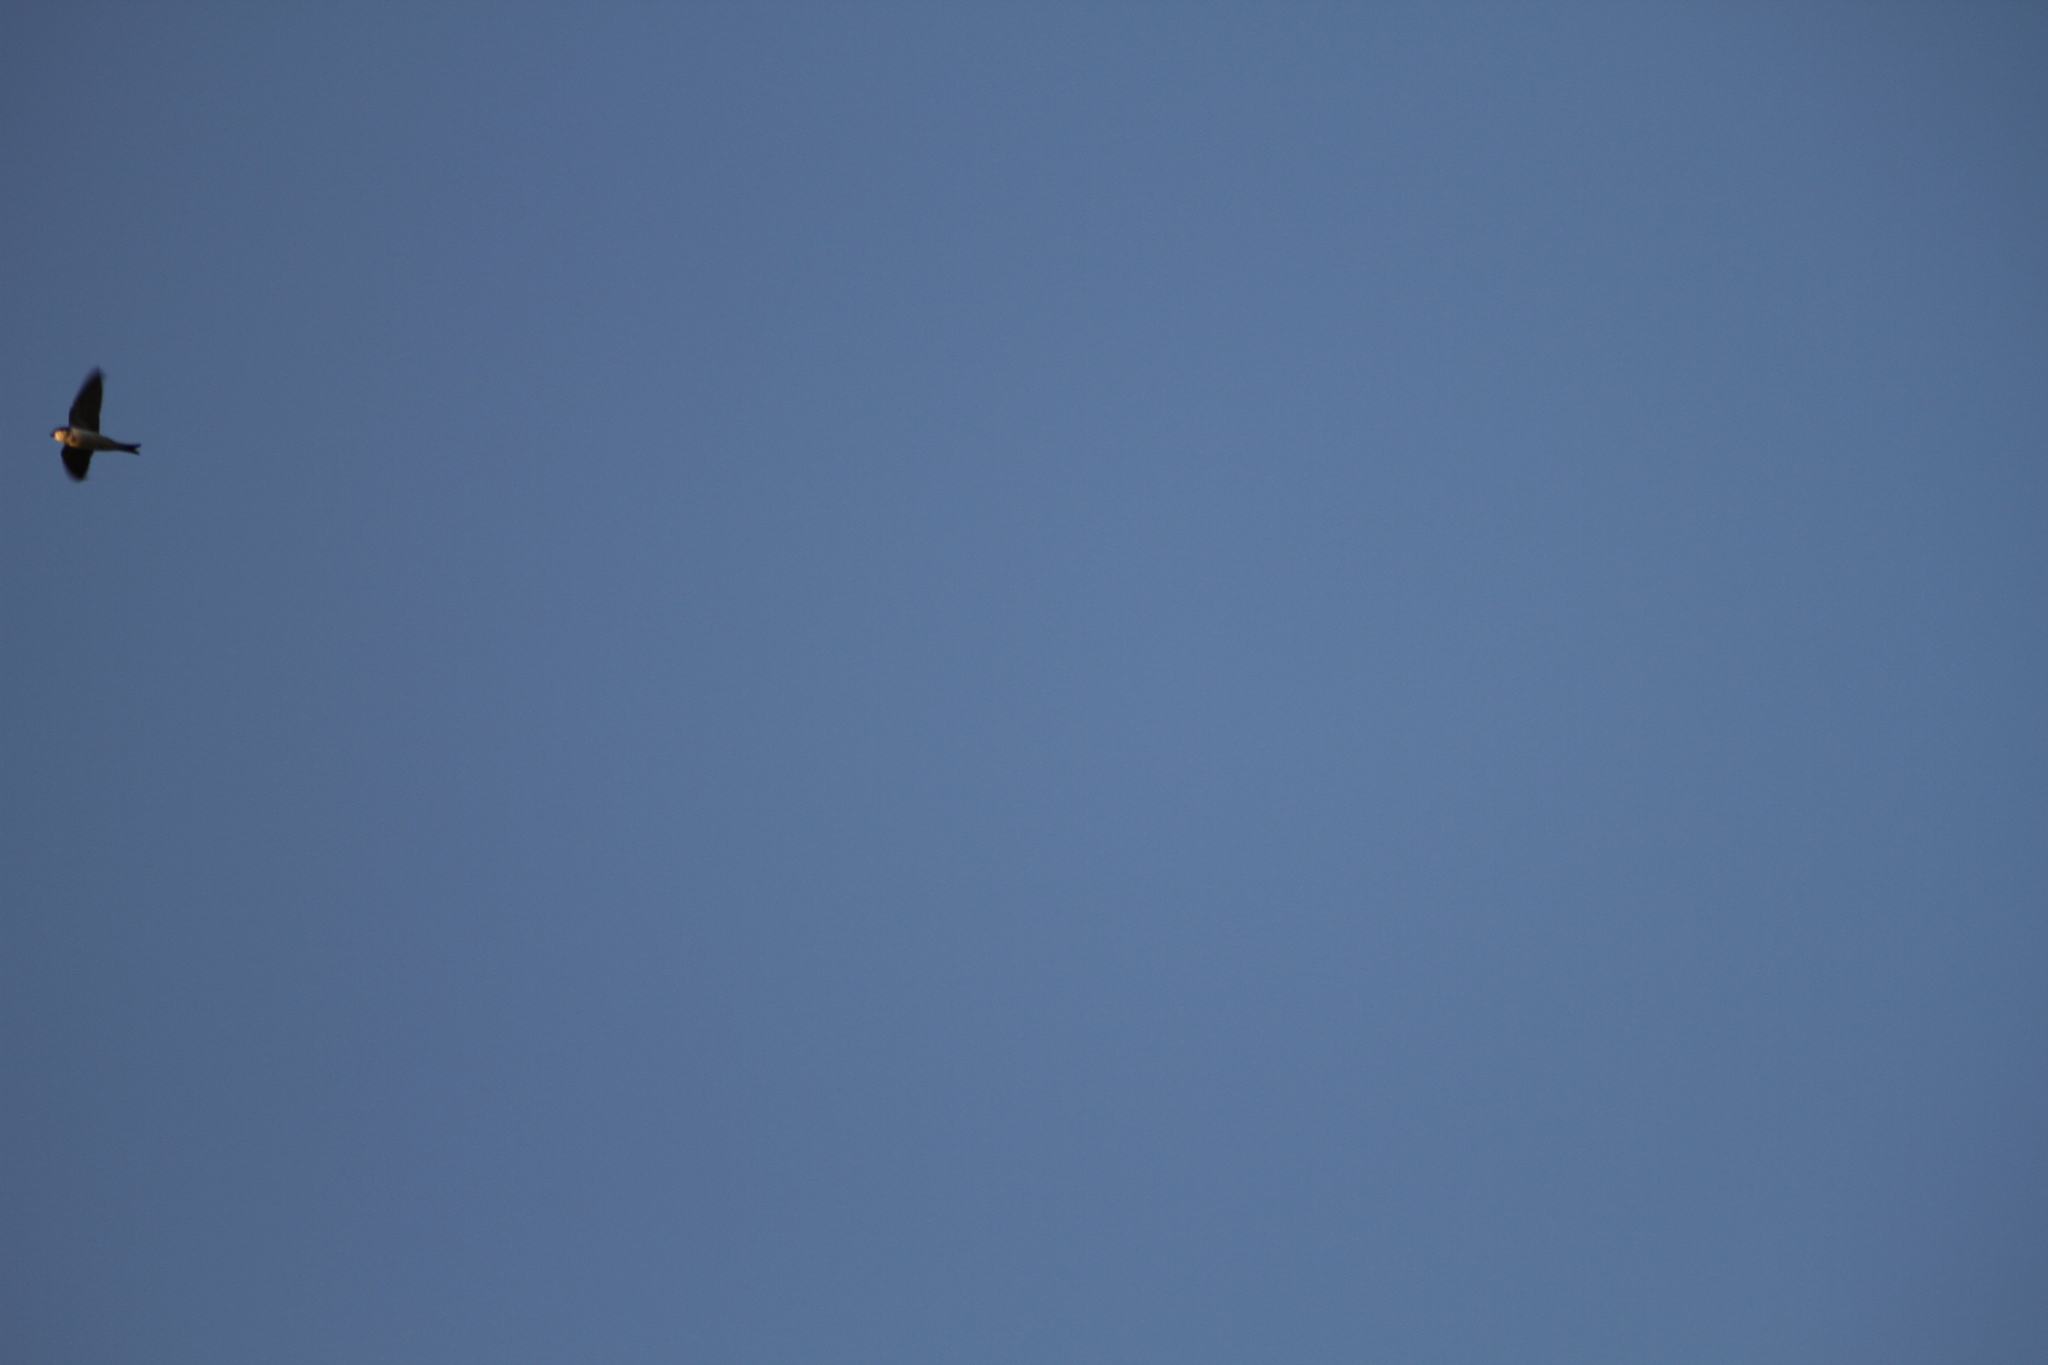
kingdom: Animalia
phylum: Chordata
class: Aves
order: Passeriformes
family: Hirundinidae
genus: Delichon
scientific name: Delichon urbicum
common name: Common house martin
